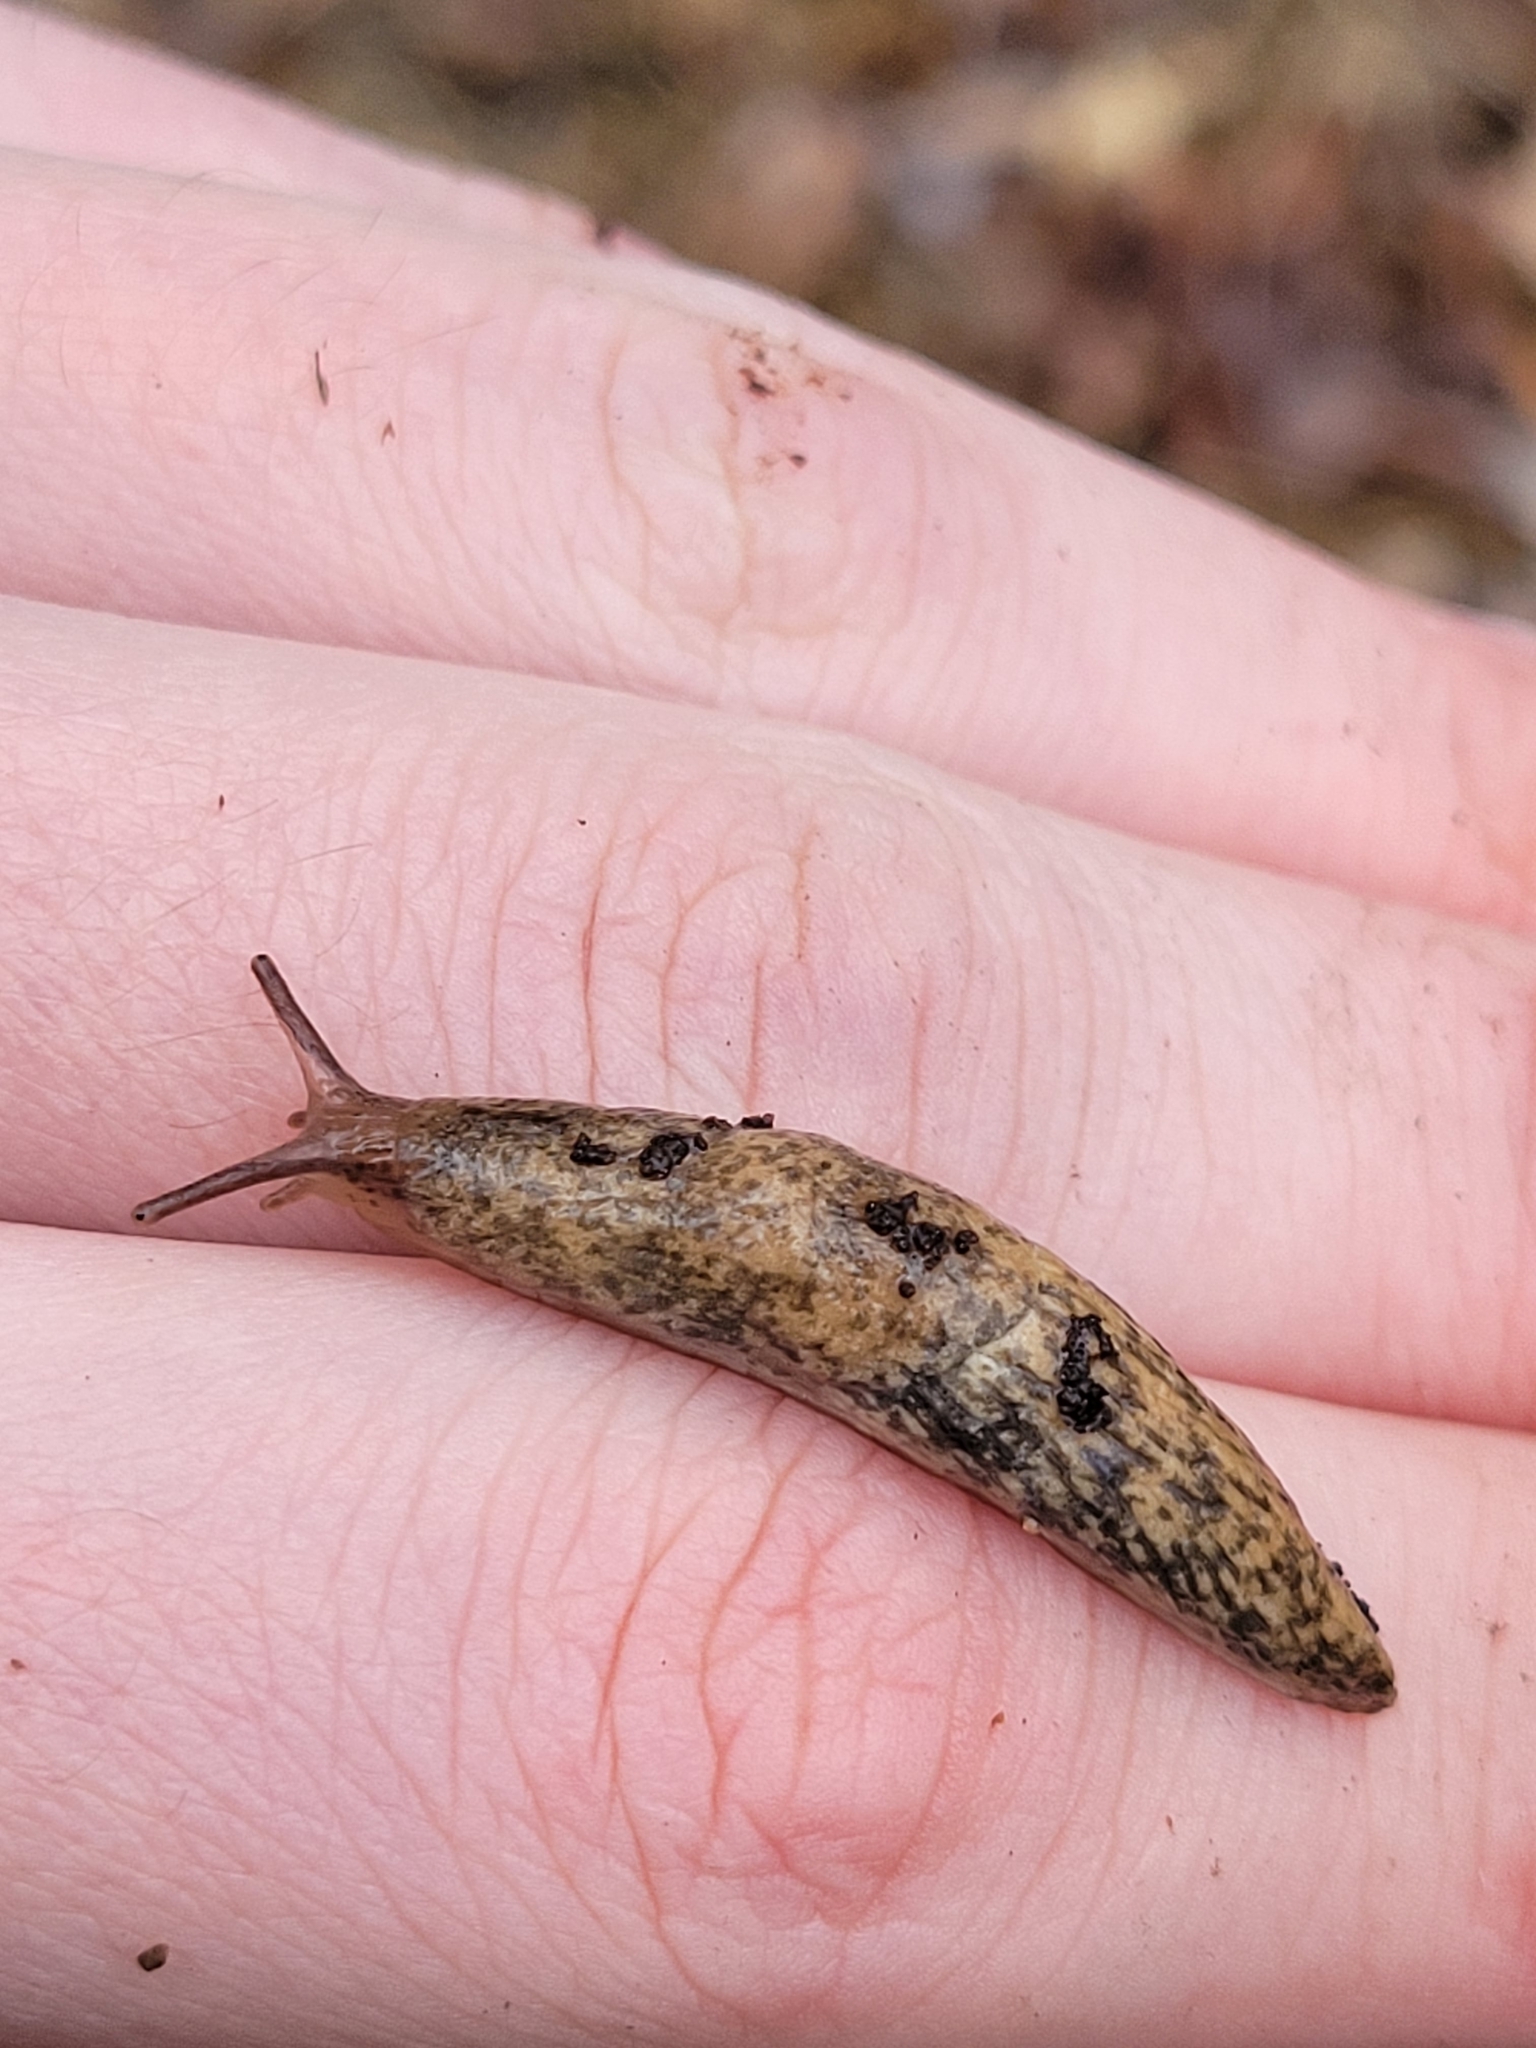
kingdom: Animalia
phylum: Mollusca
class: Gastropoda
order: Stylommatophora
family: Agriolimacidae
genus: Deroceras
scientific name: Deroceras reticulatum
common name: Gray field slug
